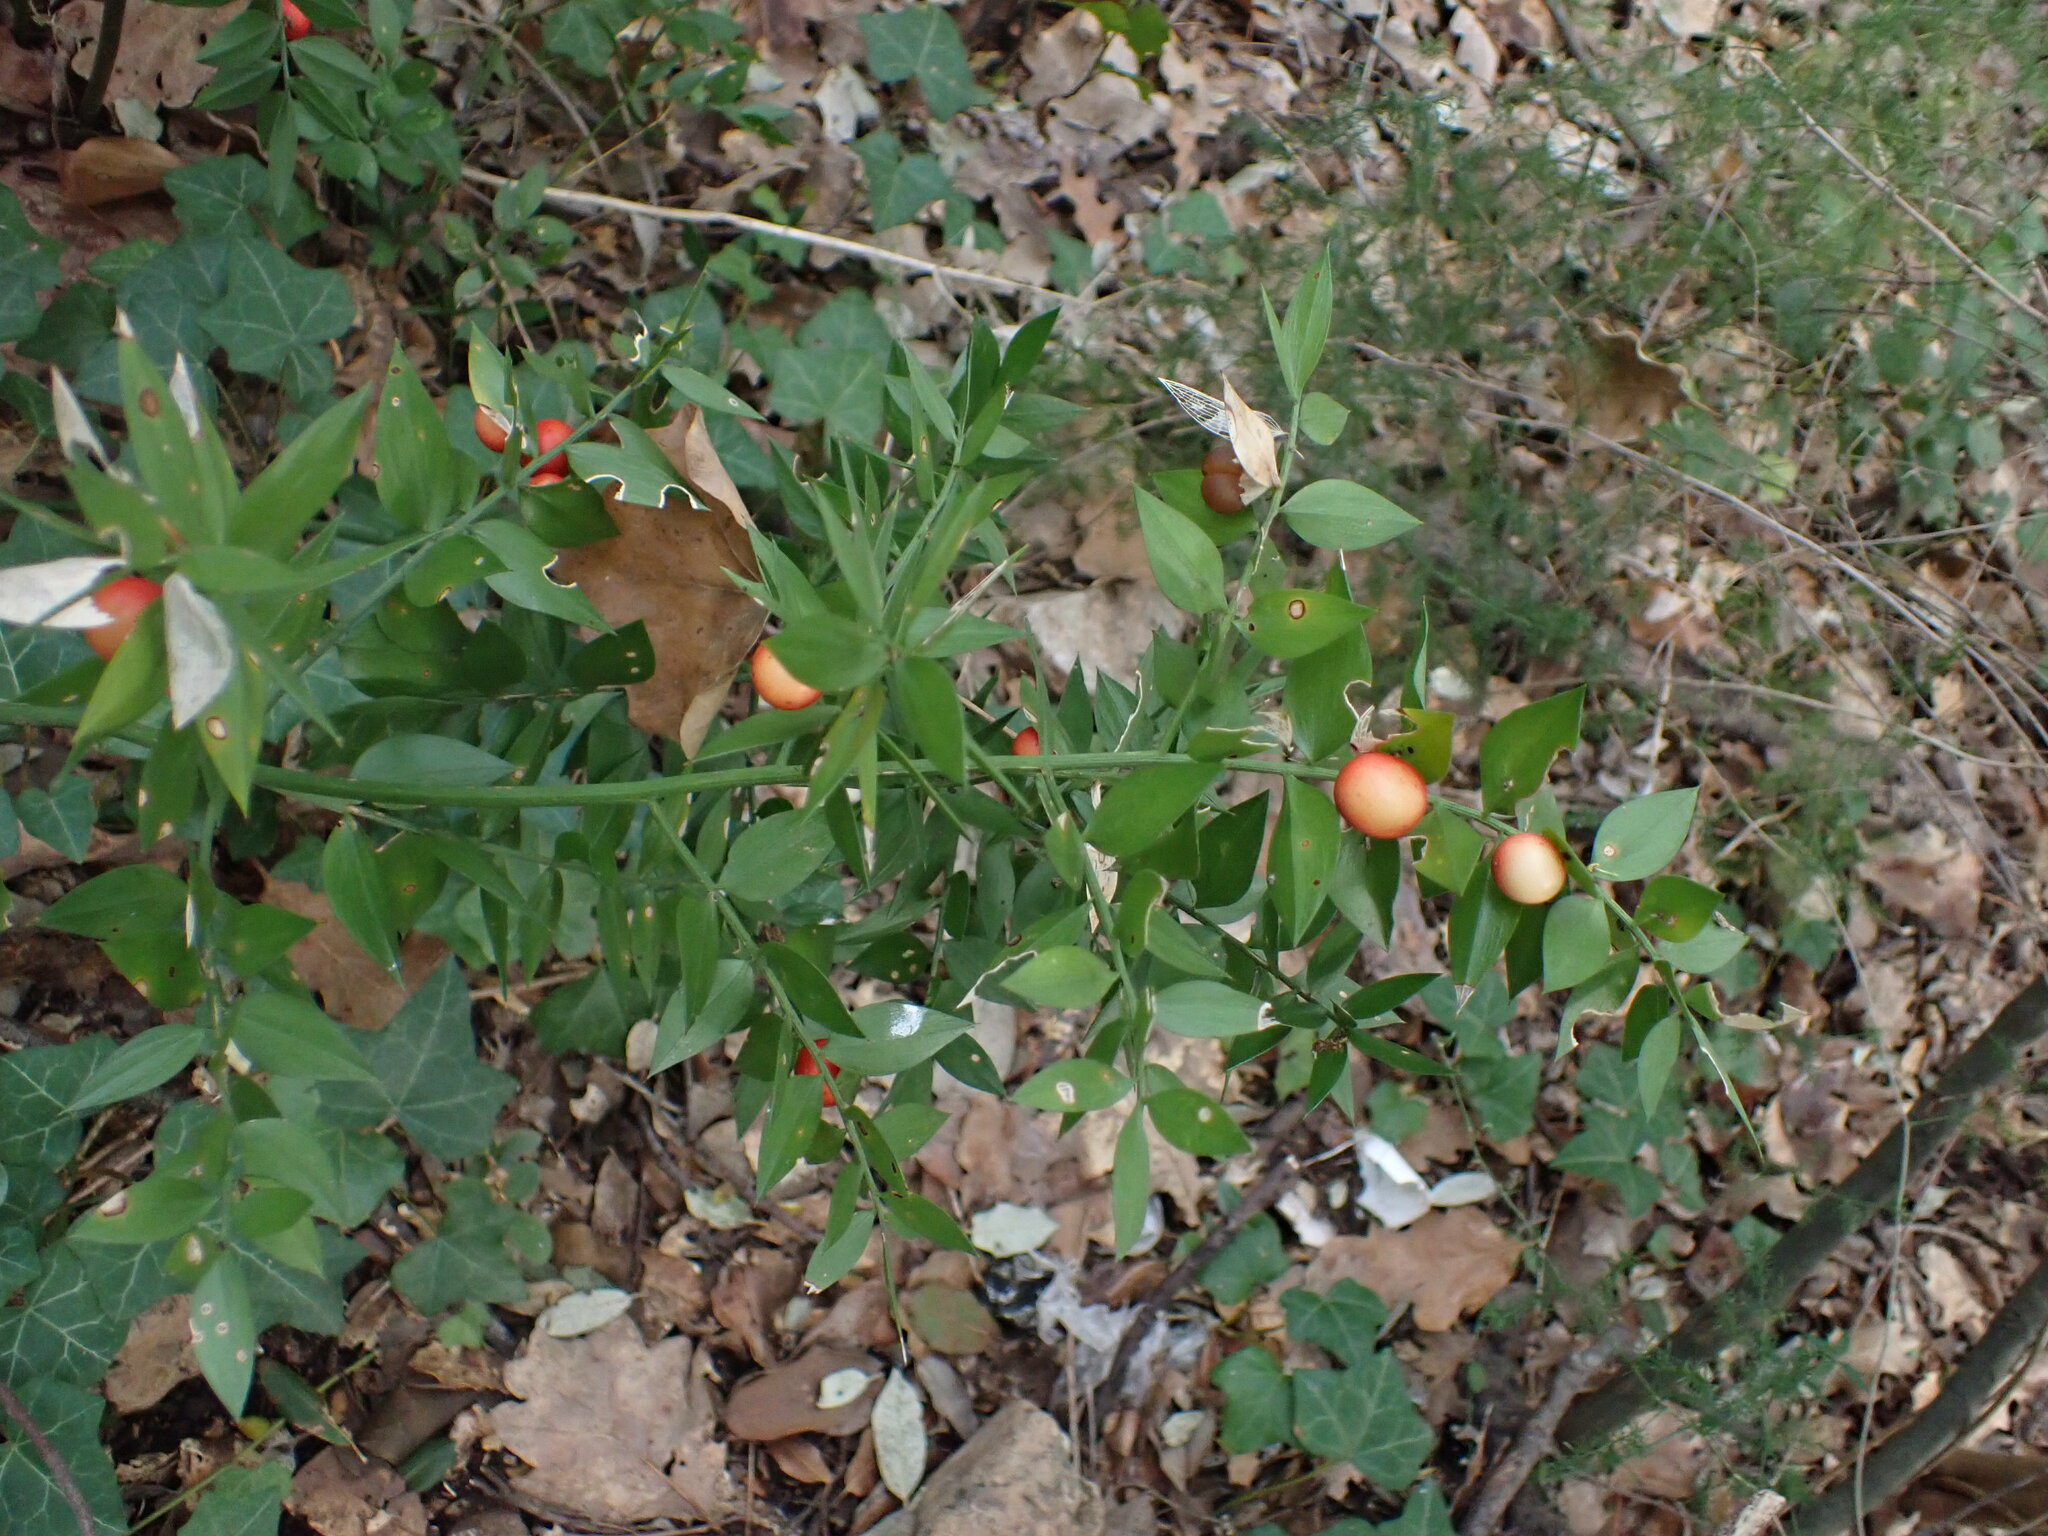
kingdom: Plantae
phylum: Tracheophyta
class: Liliopsida
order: Asparagales
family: Asparagaceae
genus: Ruscus
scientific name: Ruscus aculeatus
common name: Butcher's-broom
